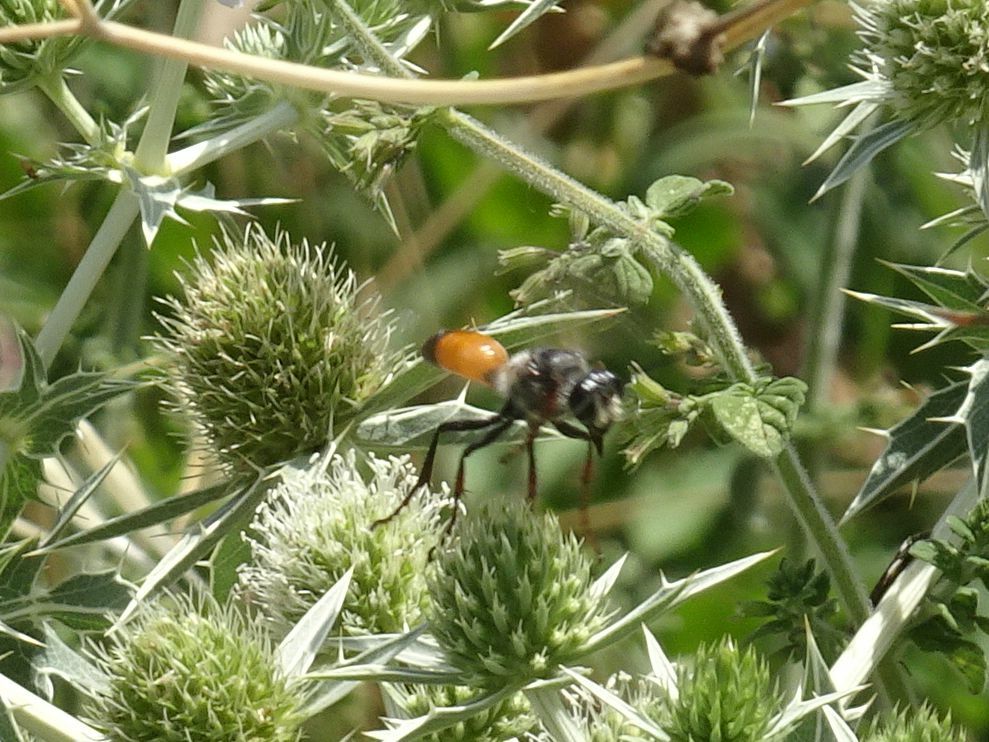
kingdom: Animalia
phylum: Arthropoda
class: Insecta
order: Hymenoptera
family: Sphecidae
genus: Sphex
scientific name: Sphex funerarius
